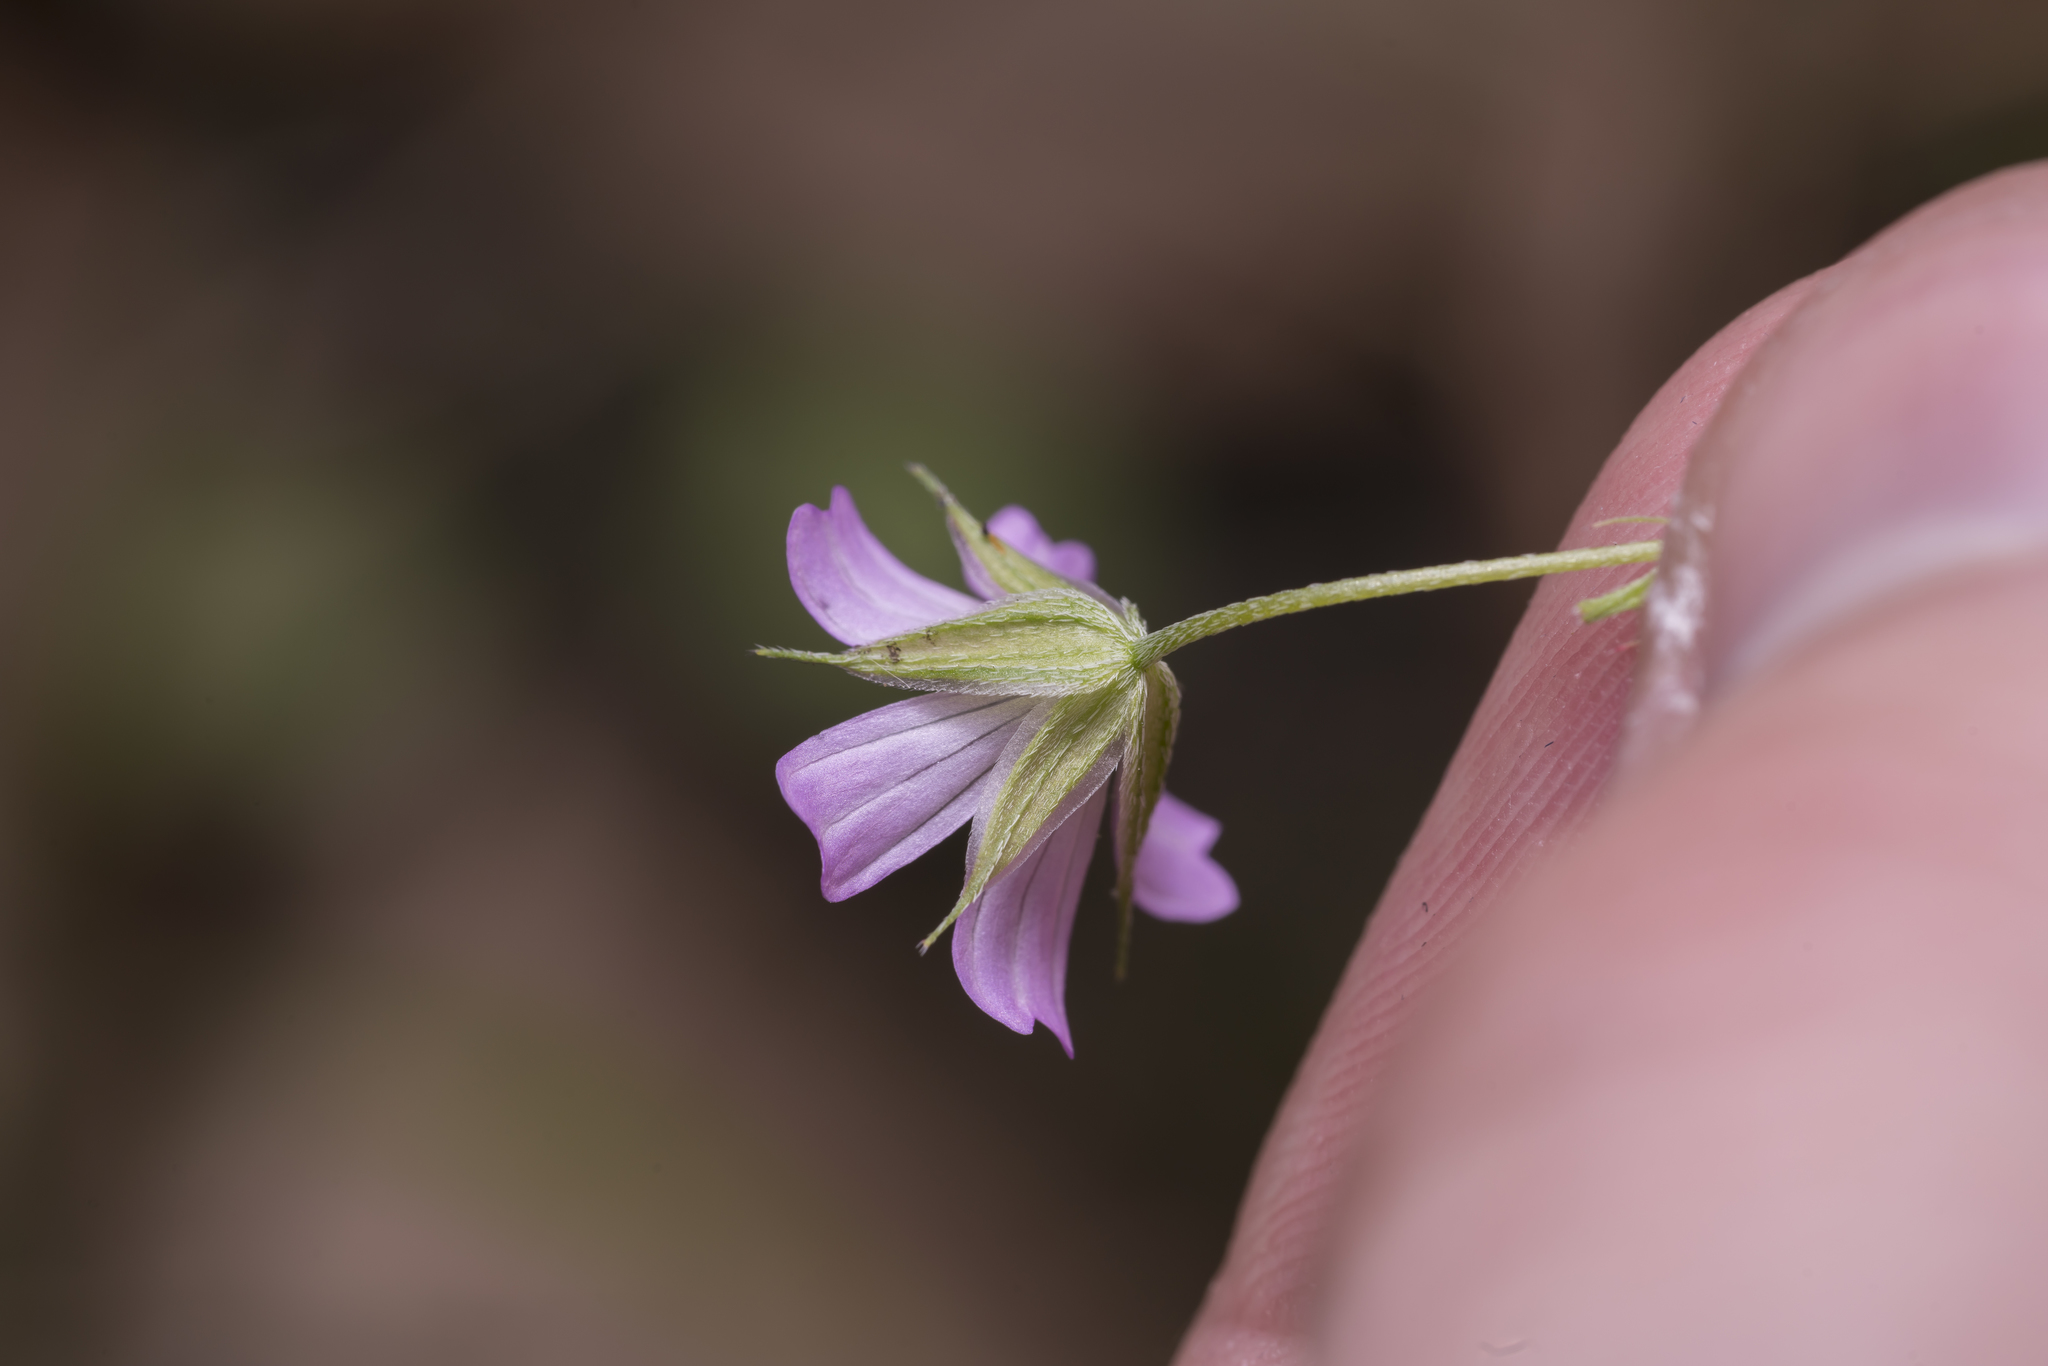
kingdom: Plantae
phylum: Tracheophyta
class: Magnoliopsida
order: Geraniales
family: Geraniaceae
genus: Geranium
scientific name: Geranium columbinum
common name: Long-stalked crane's-bill
